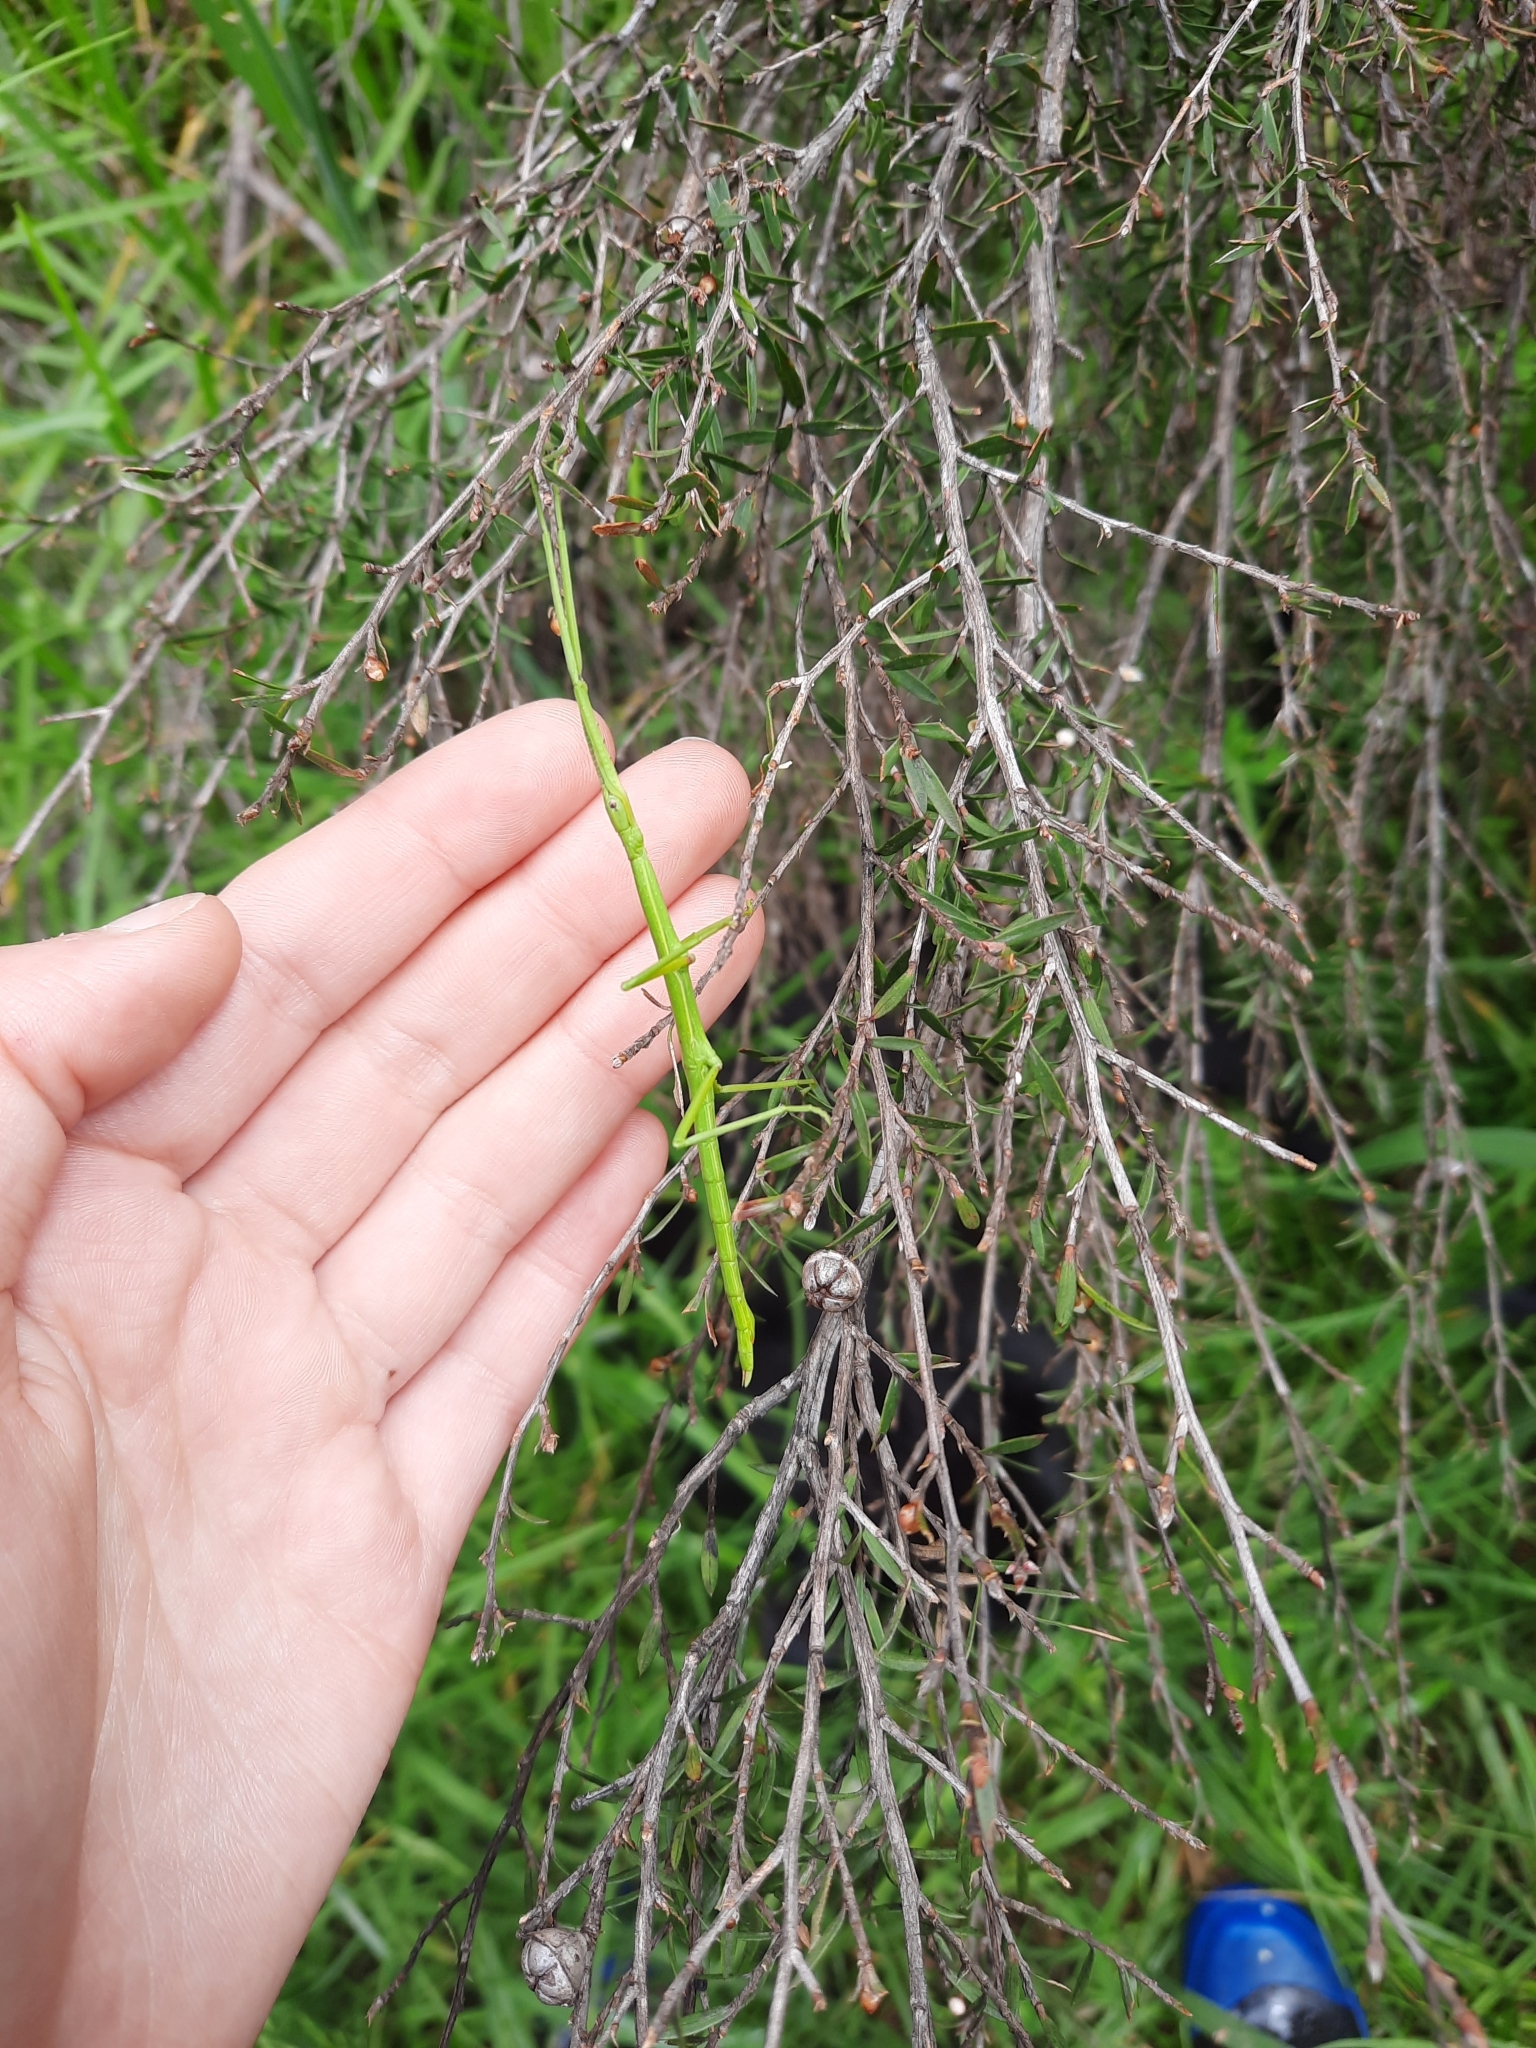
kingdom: Animalia
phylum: Arthropoda
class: Insecta
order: Phasmida
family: Phasmatidae
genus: Clitarchus
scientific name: Clitarchus hookeri
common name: Smooth stick insect
